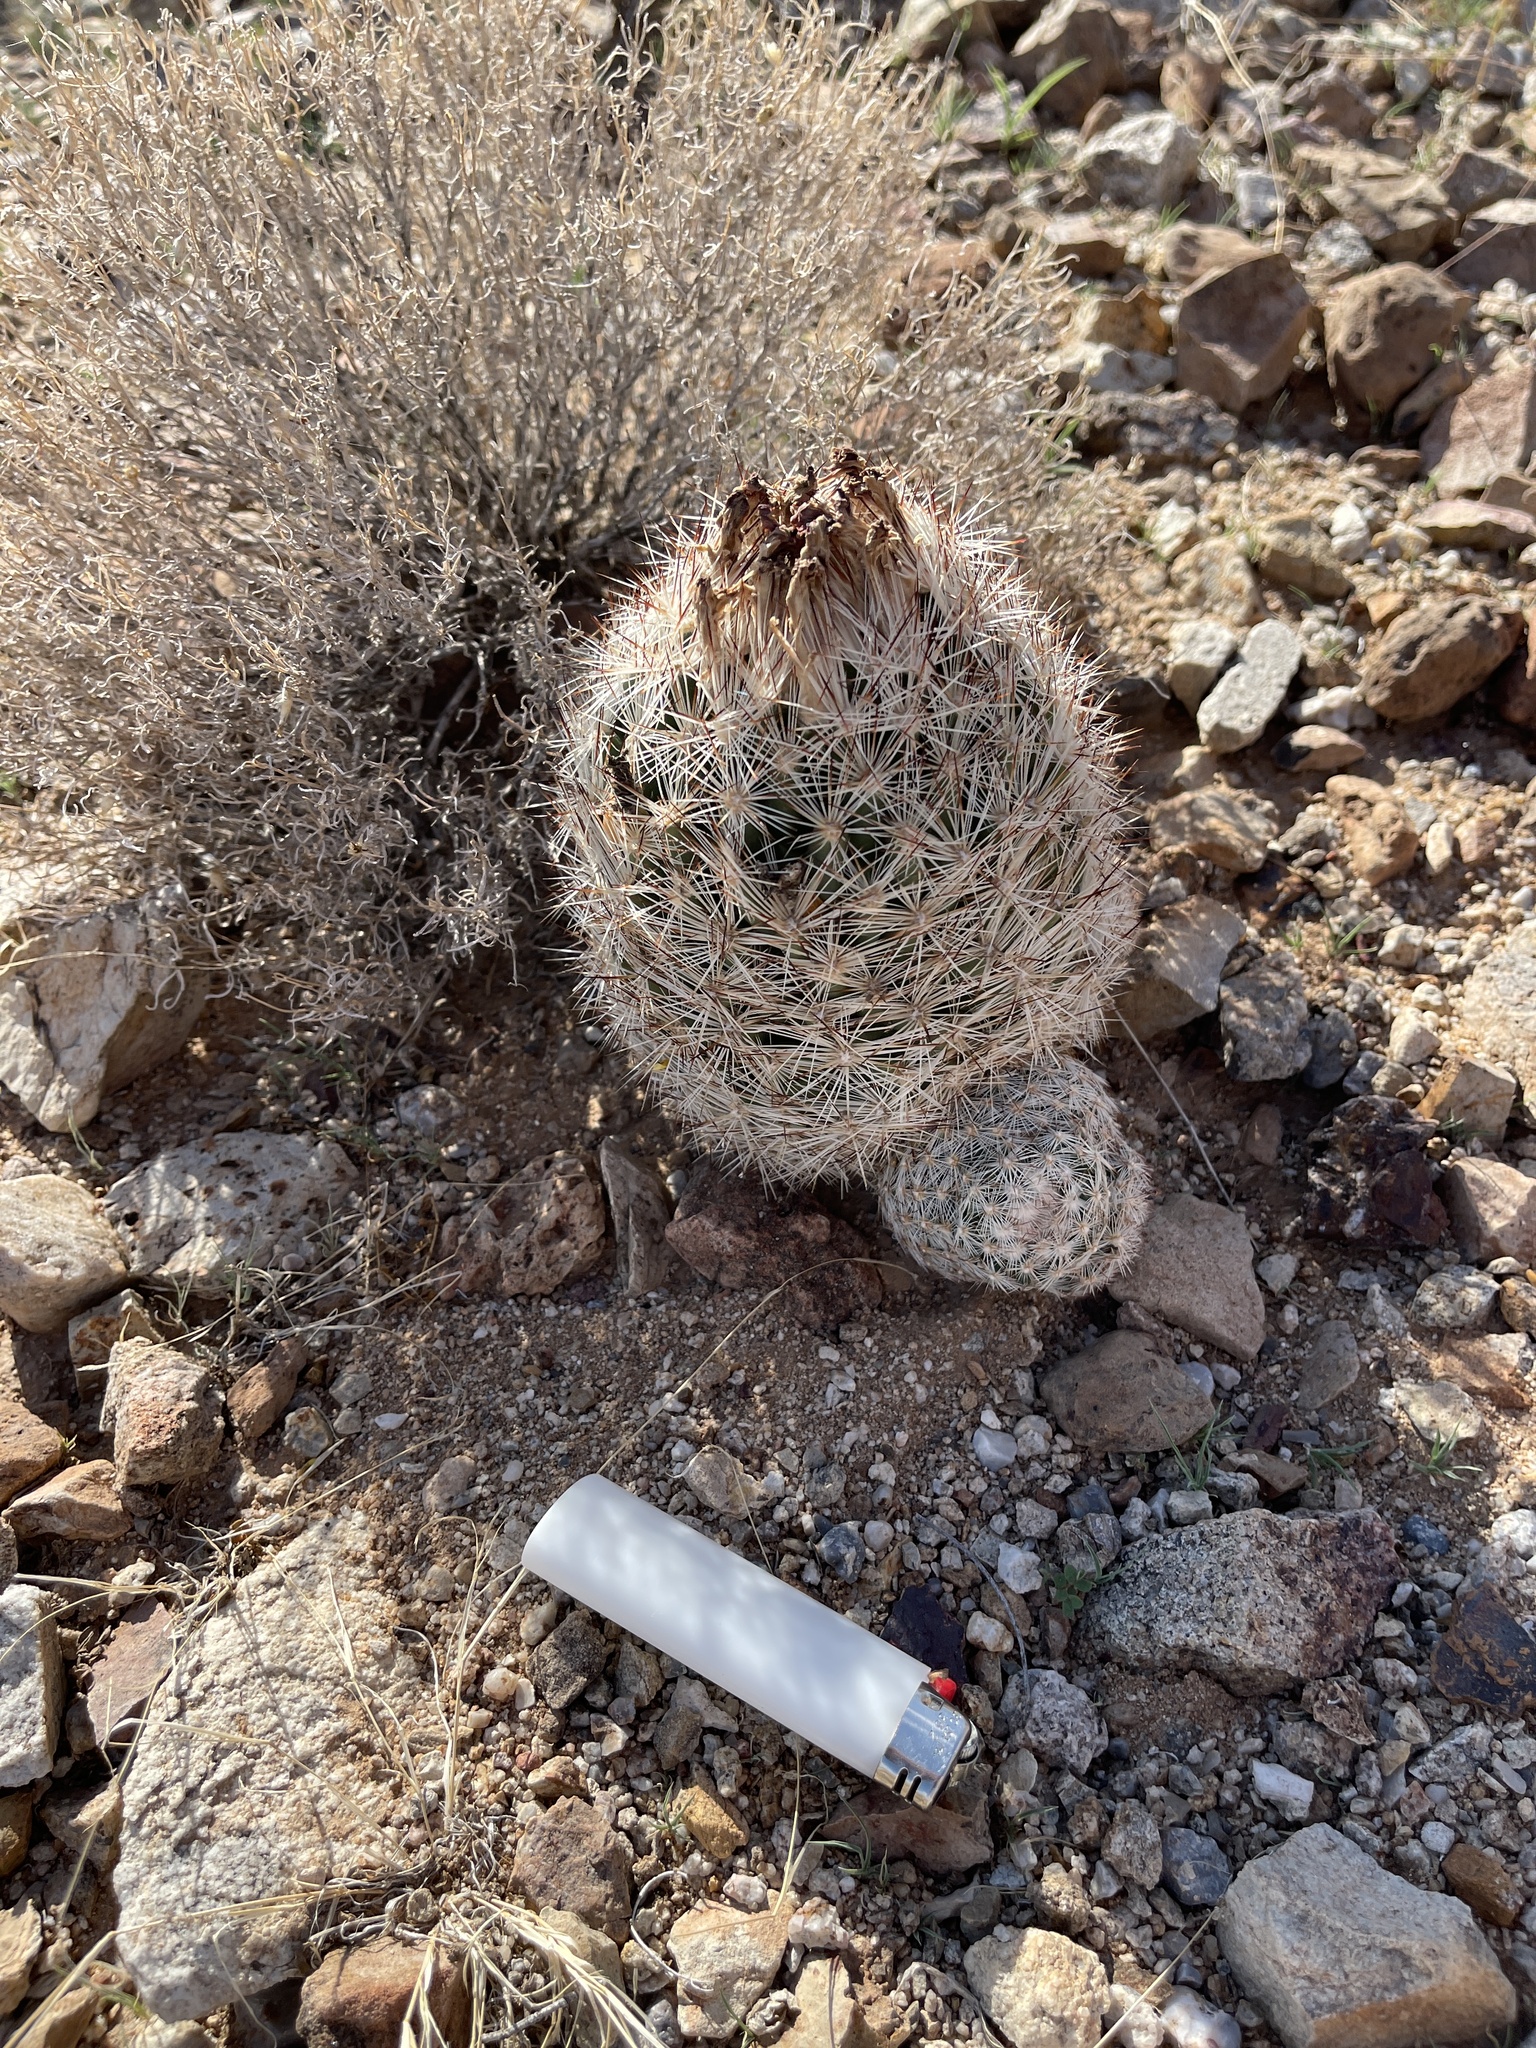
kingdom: Plantae
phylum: Tracheophyta
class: Magnoliopsida
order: Caryophyllales
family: Cactaceae
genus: Pelecyphora
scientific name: Pelecyphora vivipara
